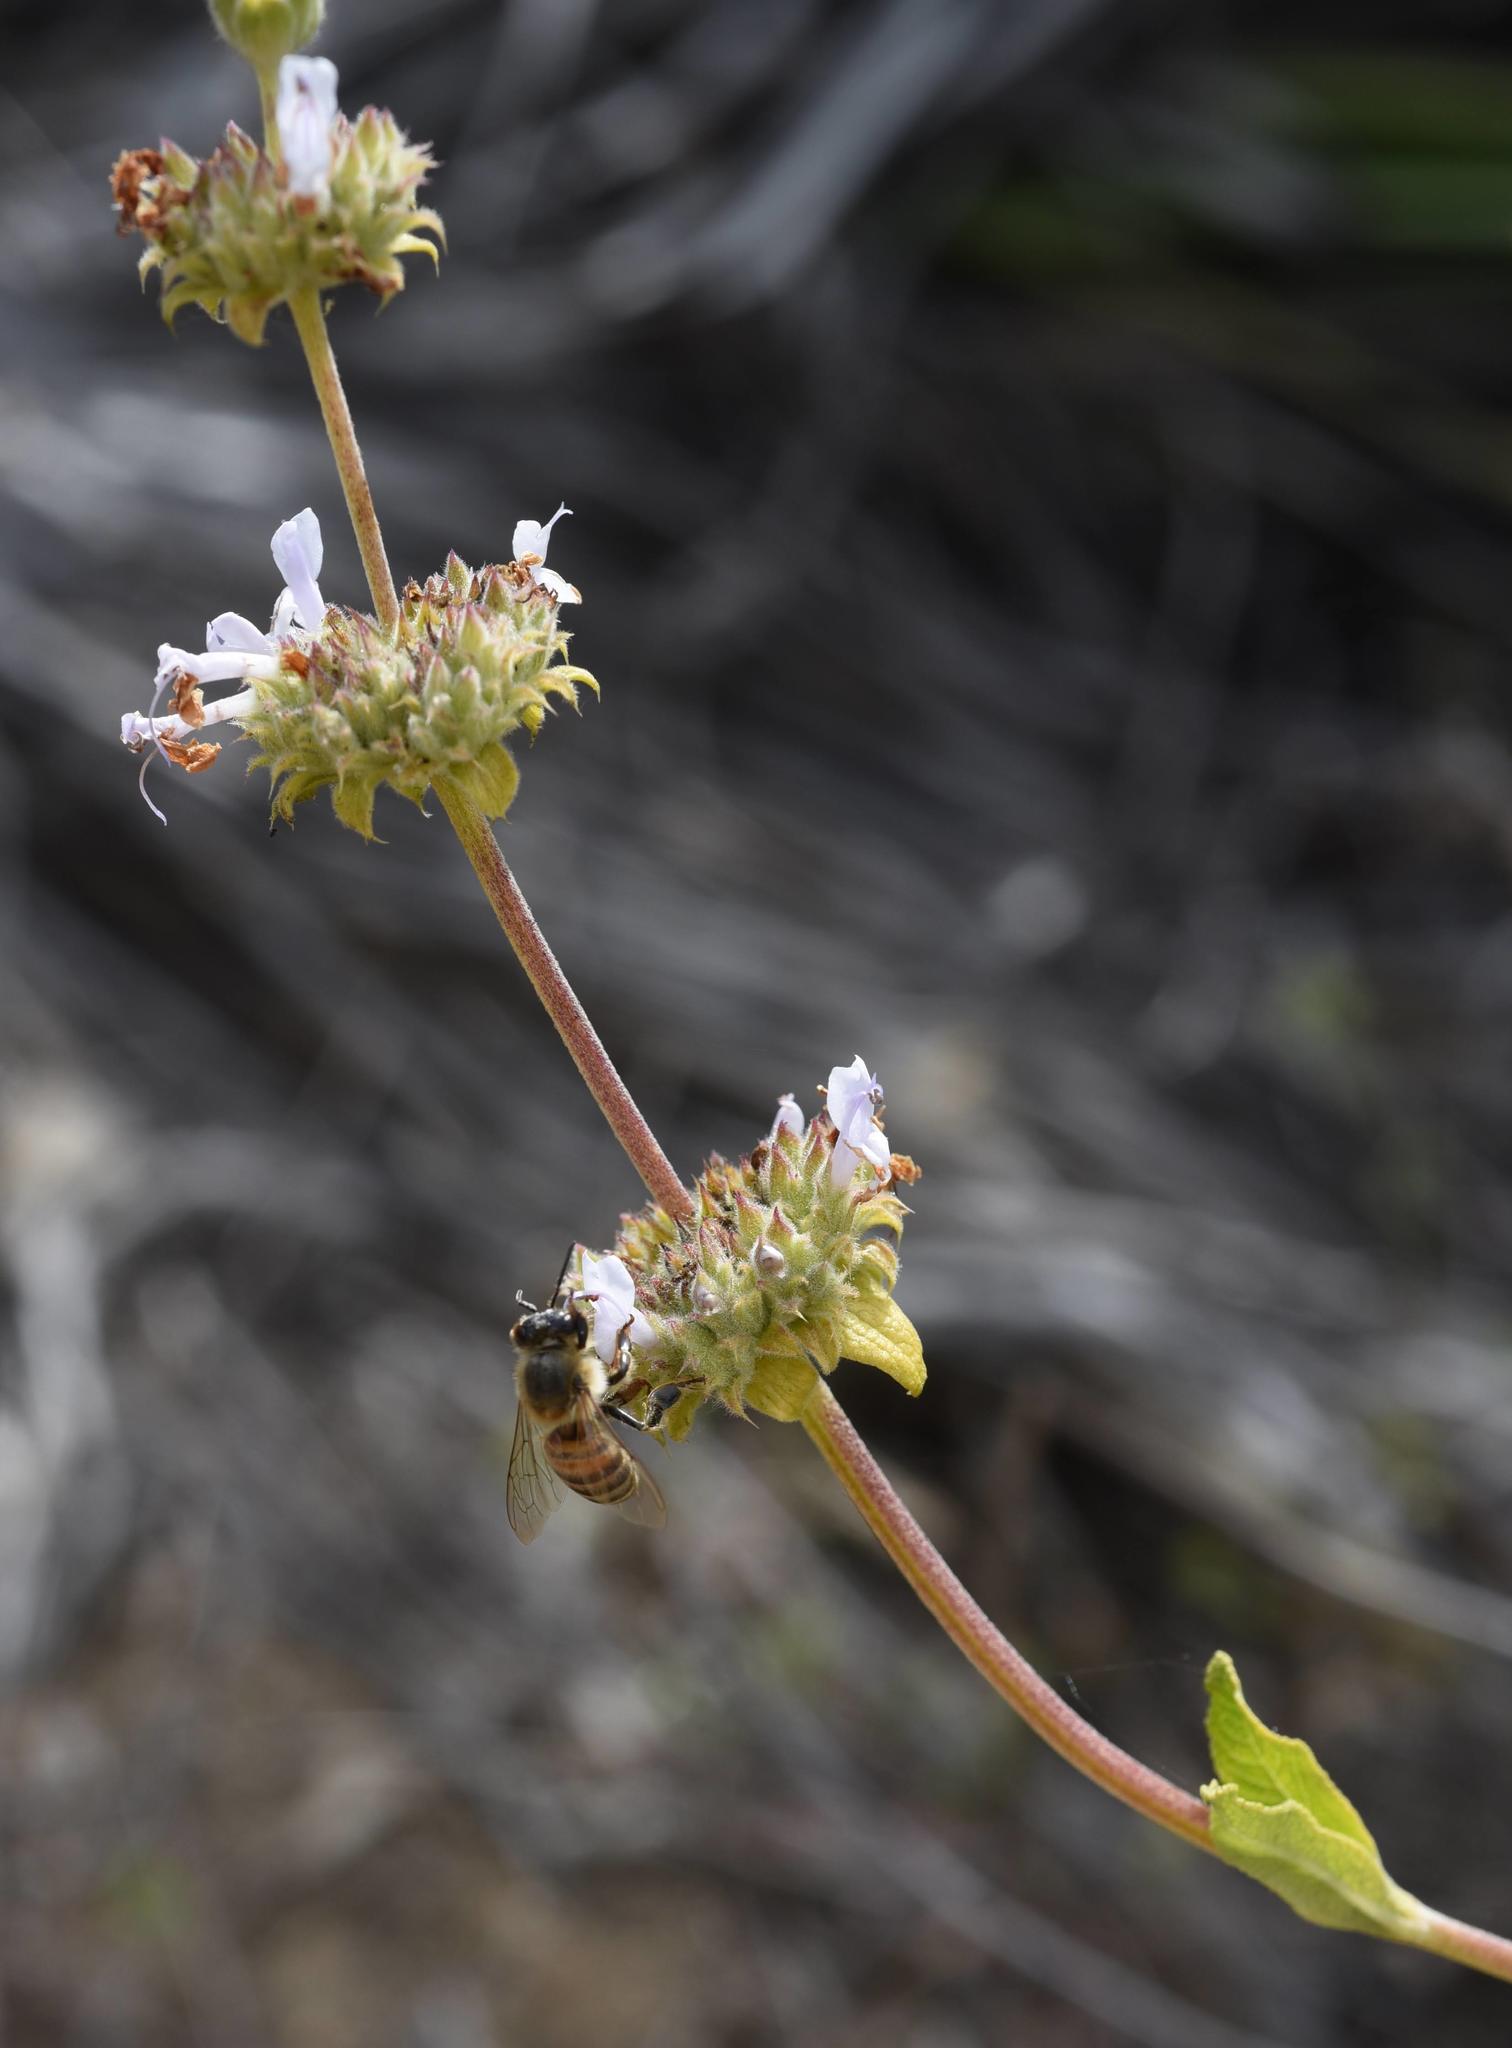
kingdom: Plantae
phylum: Tracheophyta
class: Magnoliopsida
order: Lamiales
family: Lamiaceae
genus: Salvia
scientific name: Salvia mellifera
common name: Black sage
